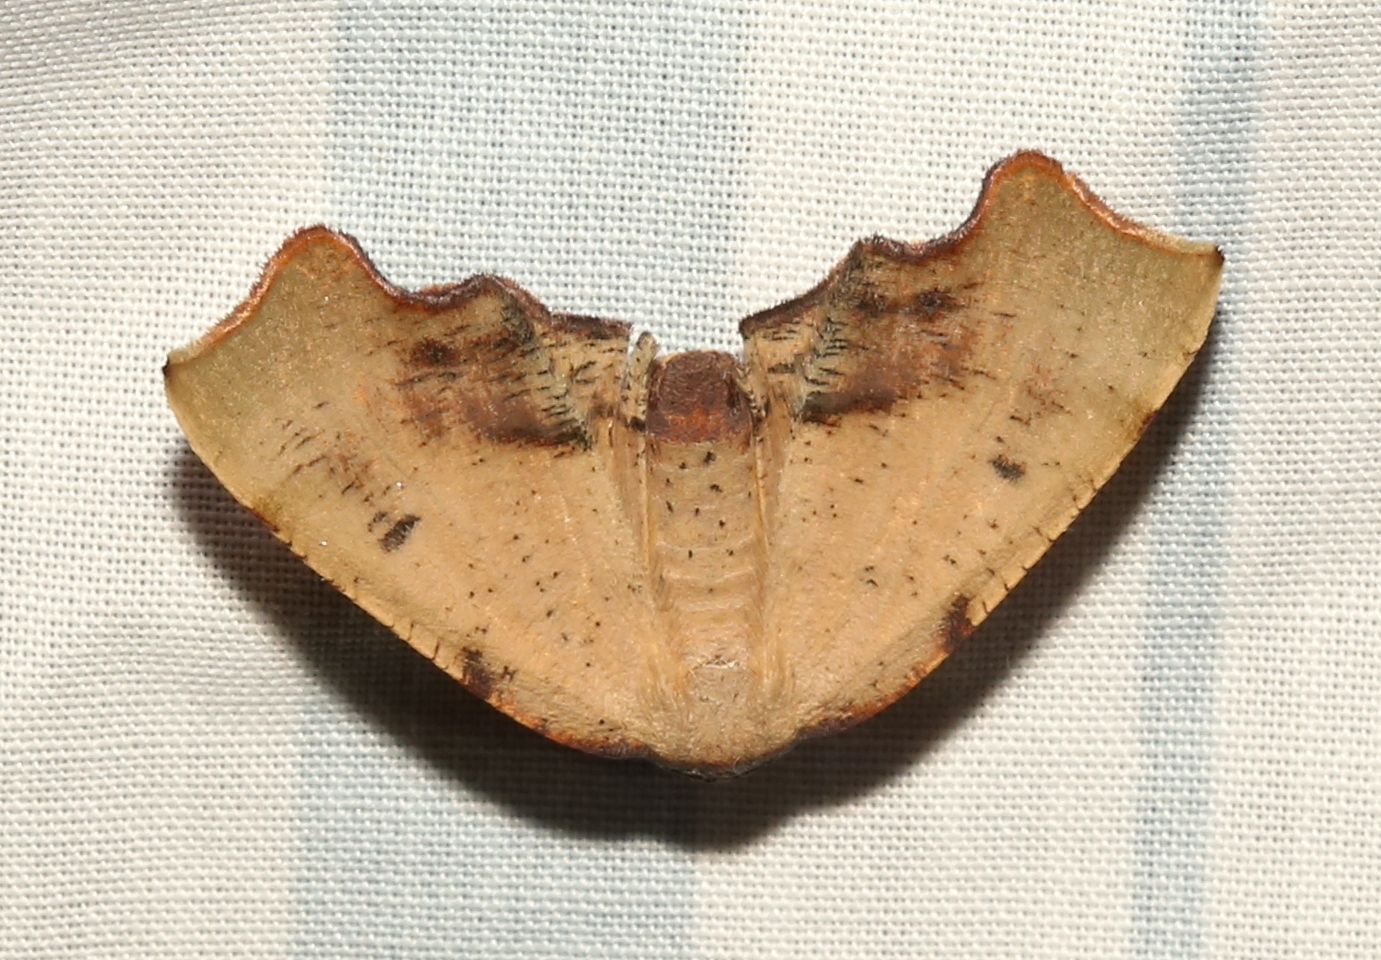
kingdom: Animalia
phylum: Arthropoda
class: Insecta
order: Lepidoptera
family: Geometridae
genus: Plagodis
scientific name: Plagodis fervidaria
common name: Fervid plagodis
